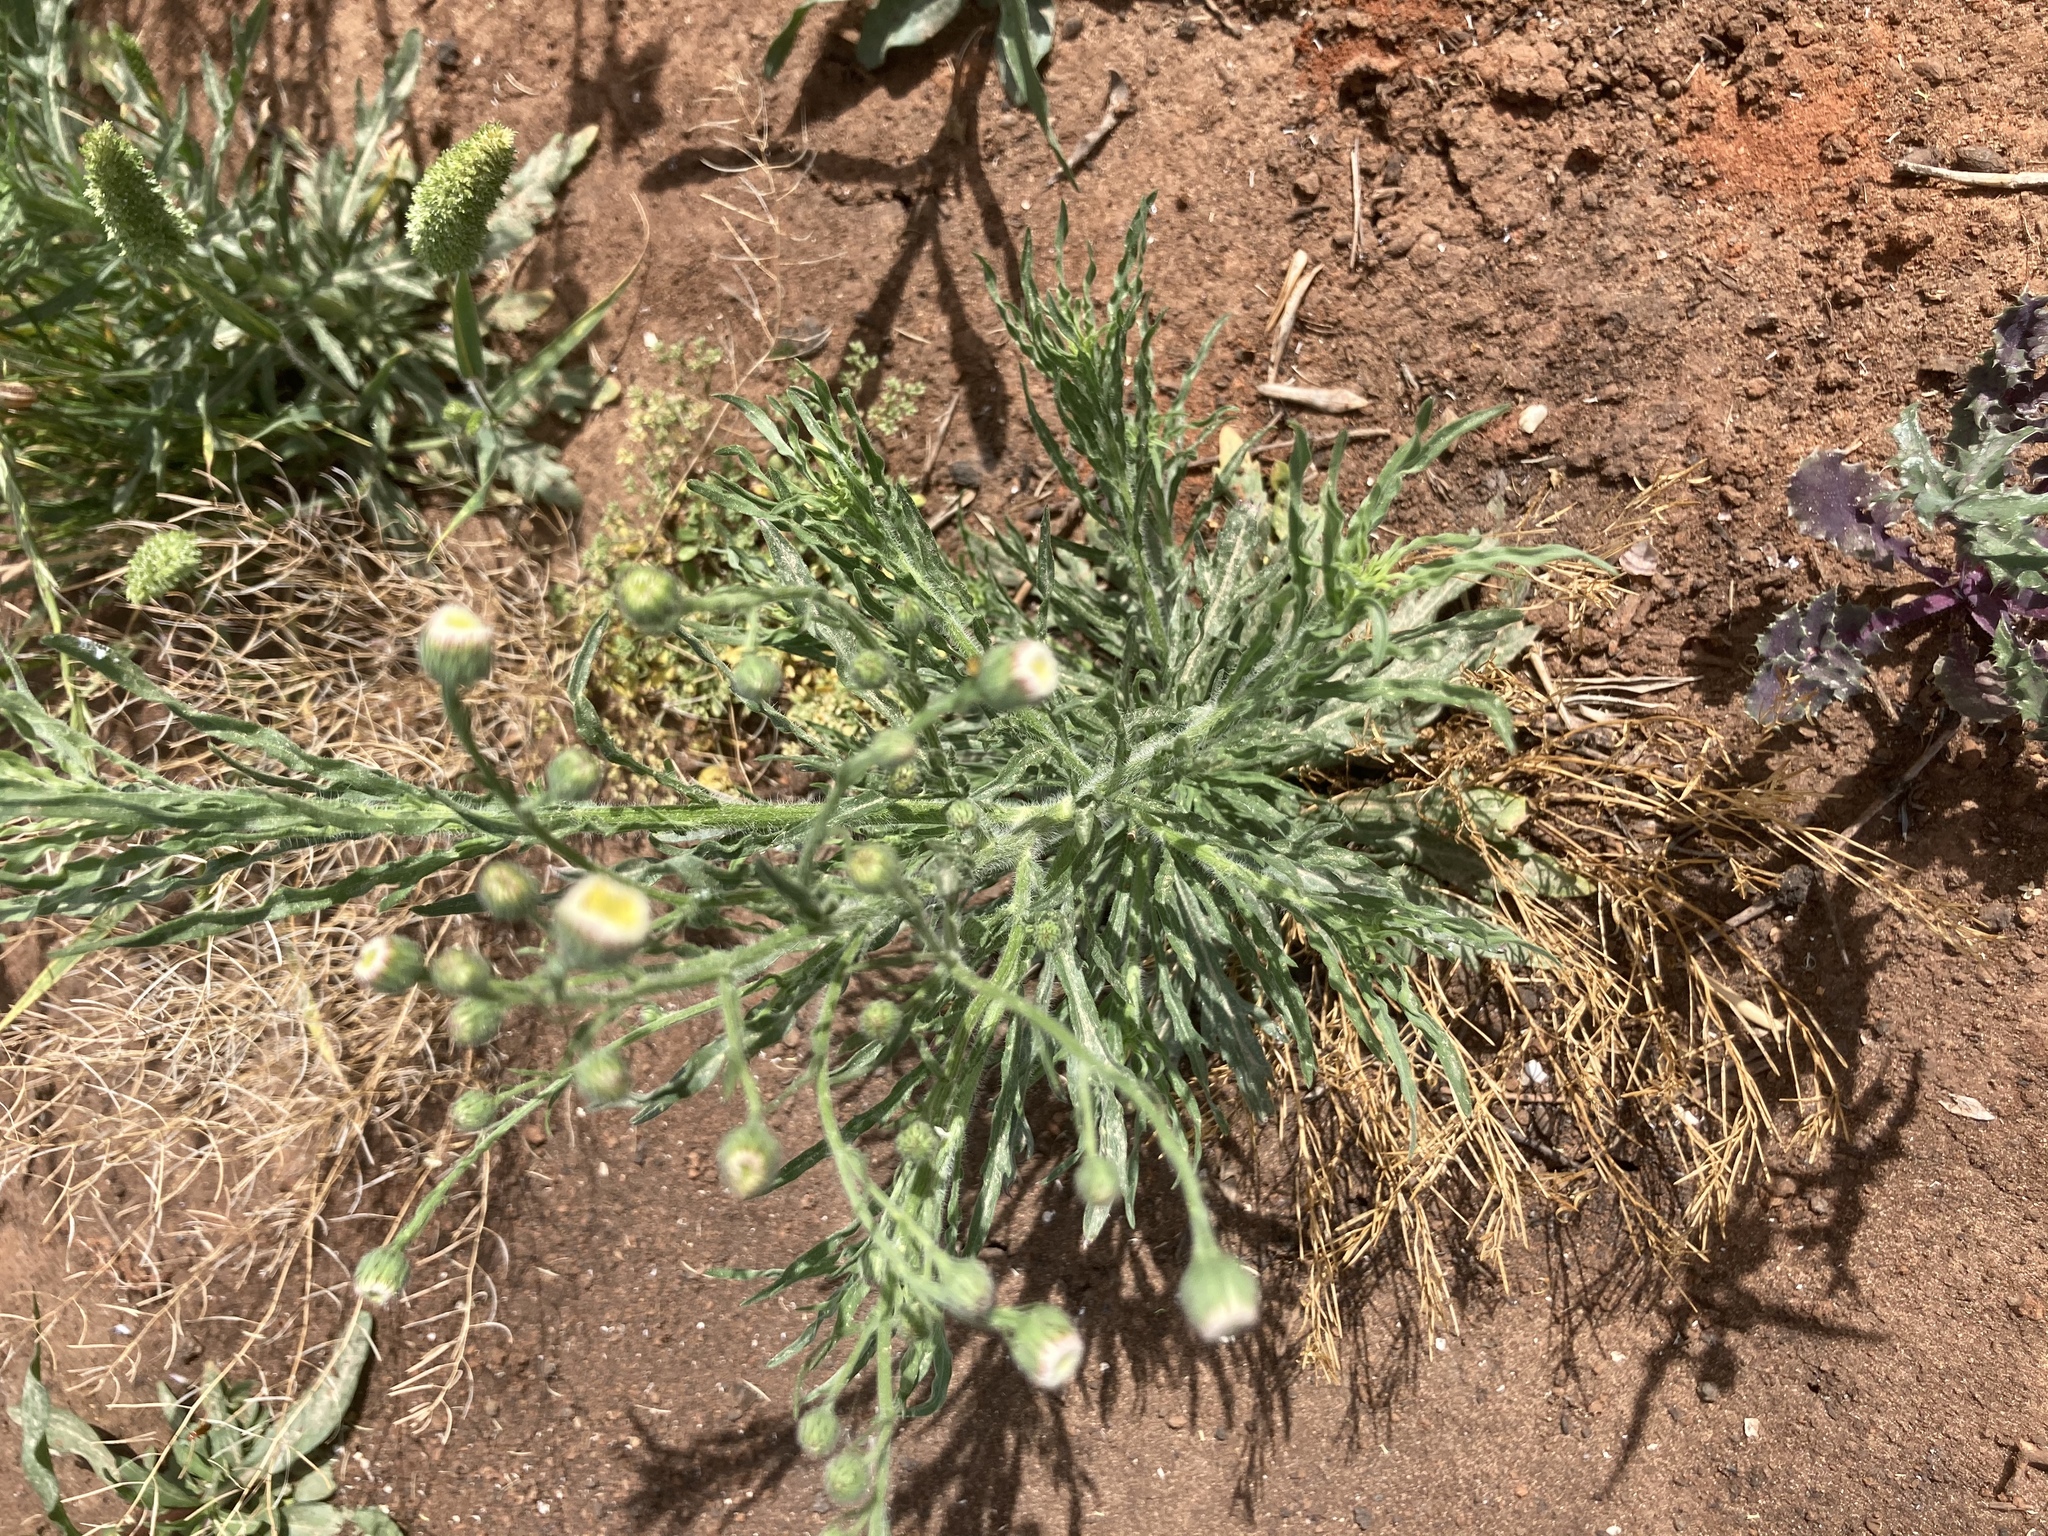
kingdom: Plantae
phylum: Tracheophyta
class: Magnoliopsida
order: Asterales
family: Asteraceae
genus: Erigeron
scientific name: Erigeron bonariensis
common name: Argentine fleabane
